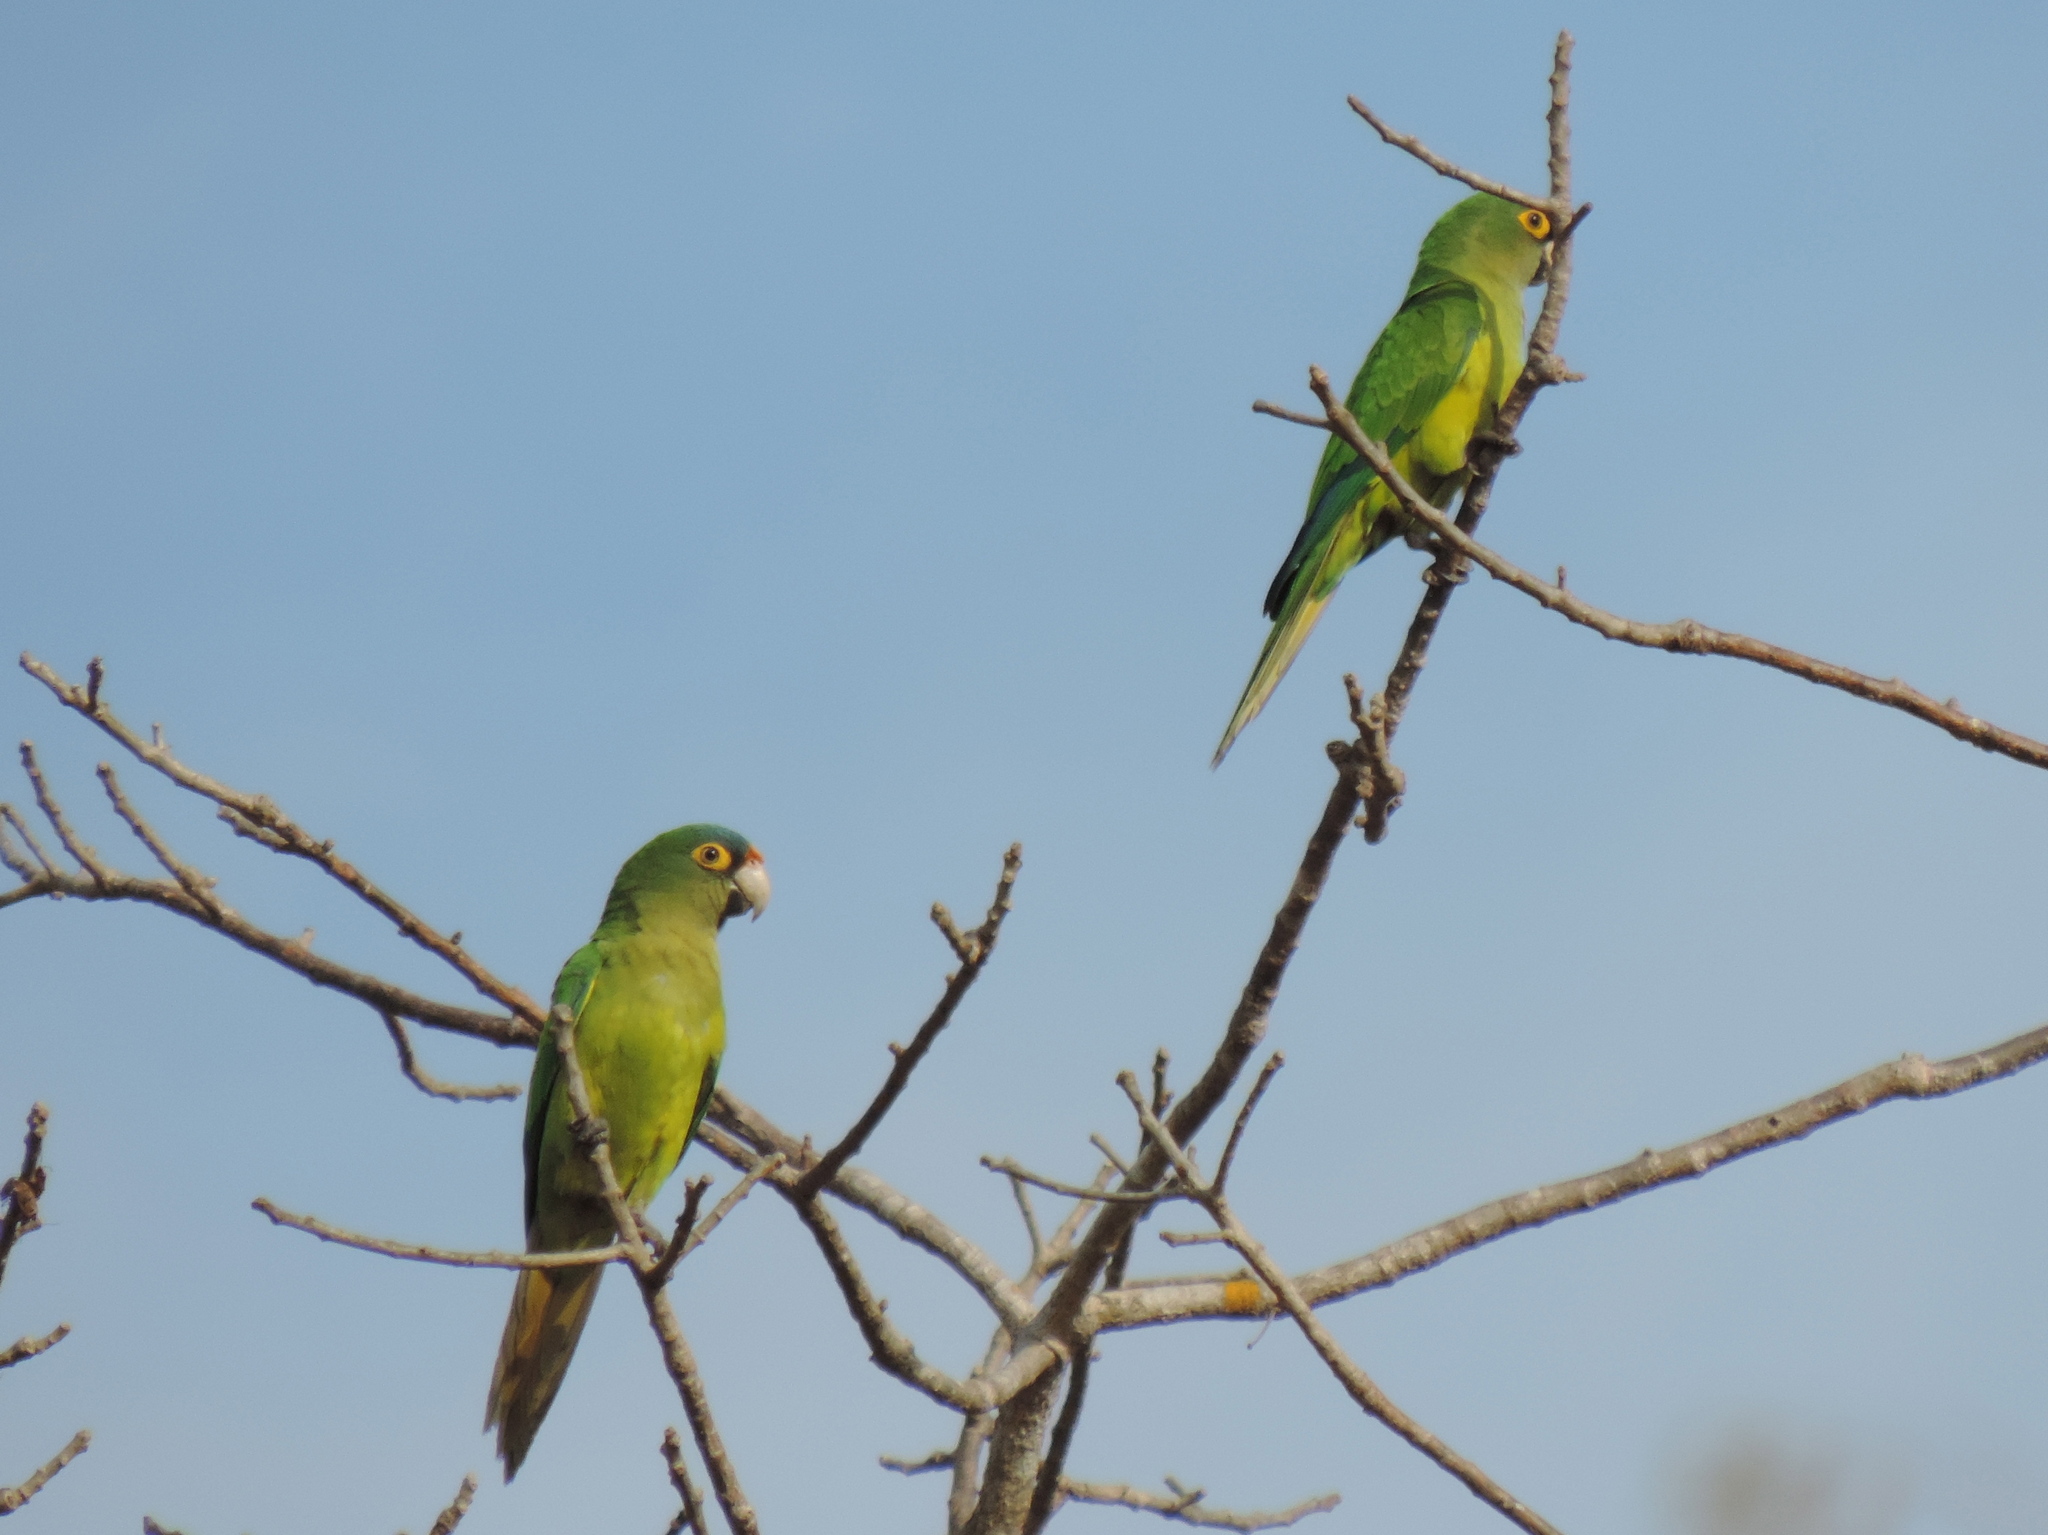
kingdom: Animalia
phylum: Chordata
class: Aves
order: Psittaciformes
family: Psittacidae
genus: Aratinga
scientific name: Aratinga canicularis
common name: Orange-fronted parakeet
